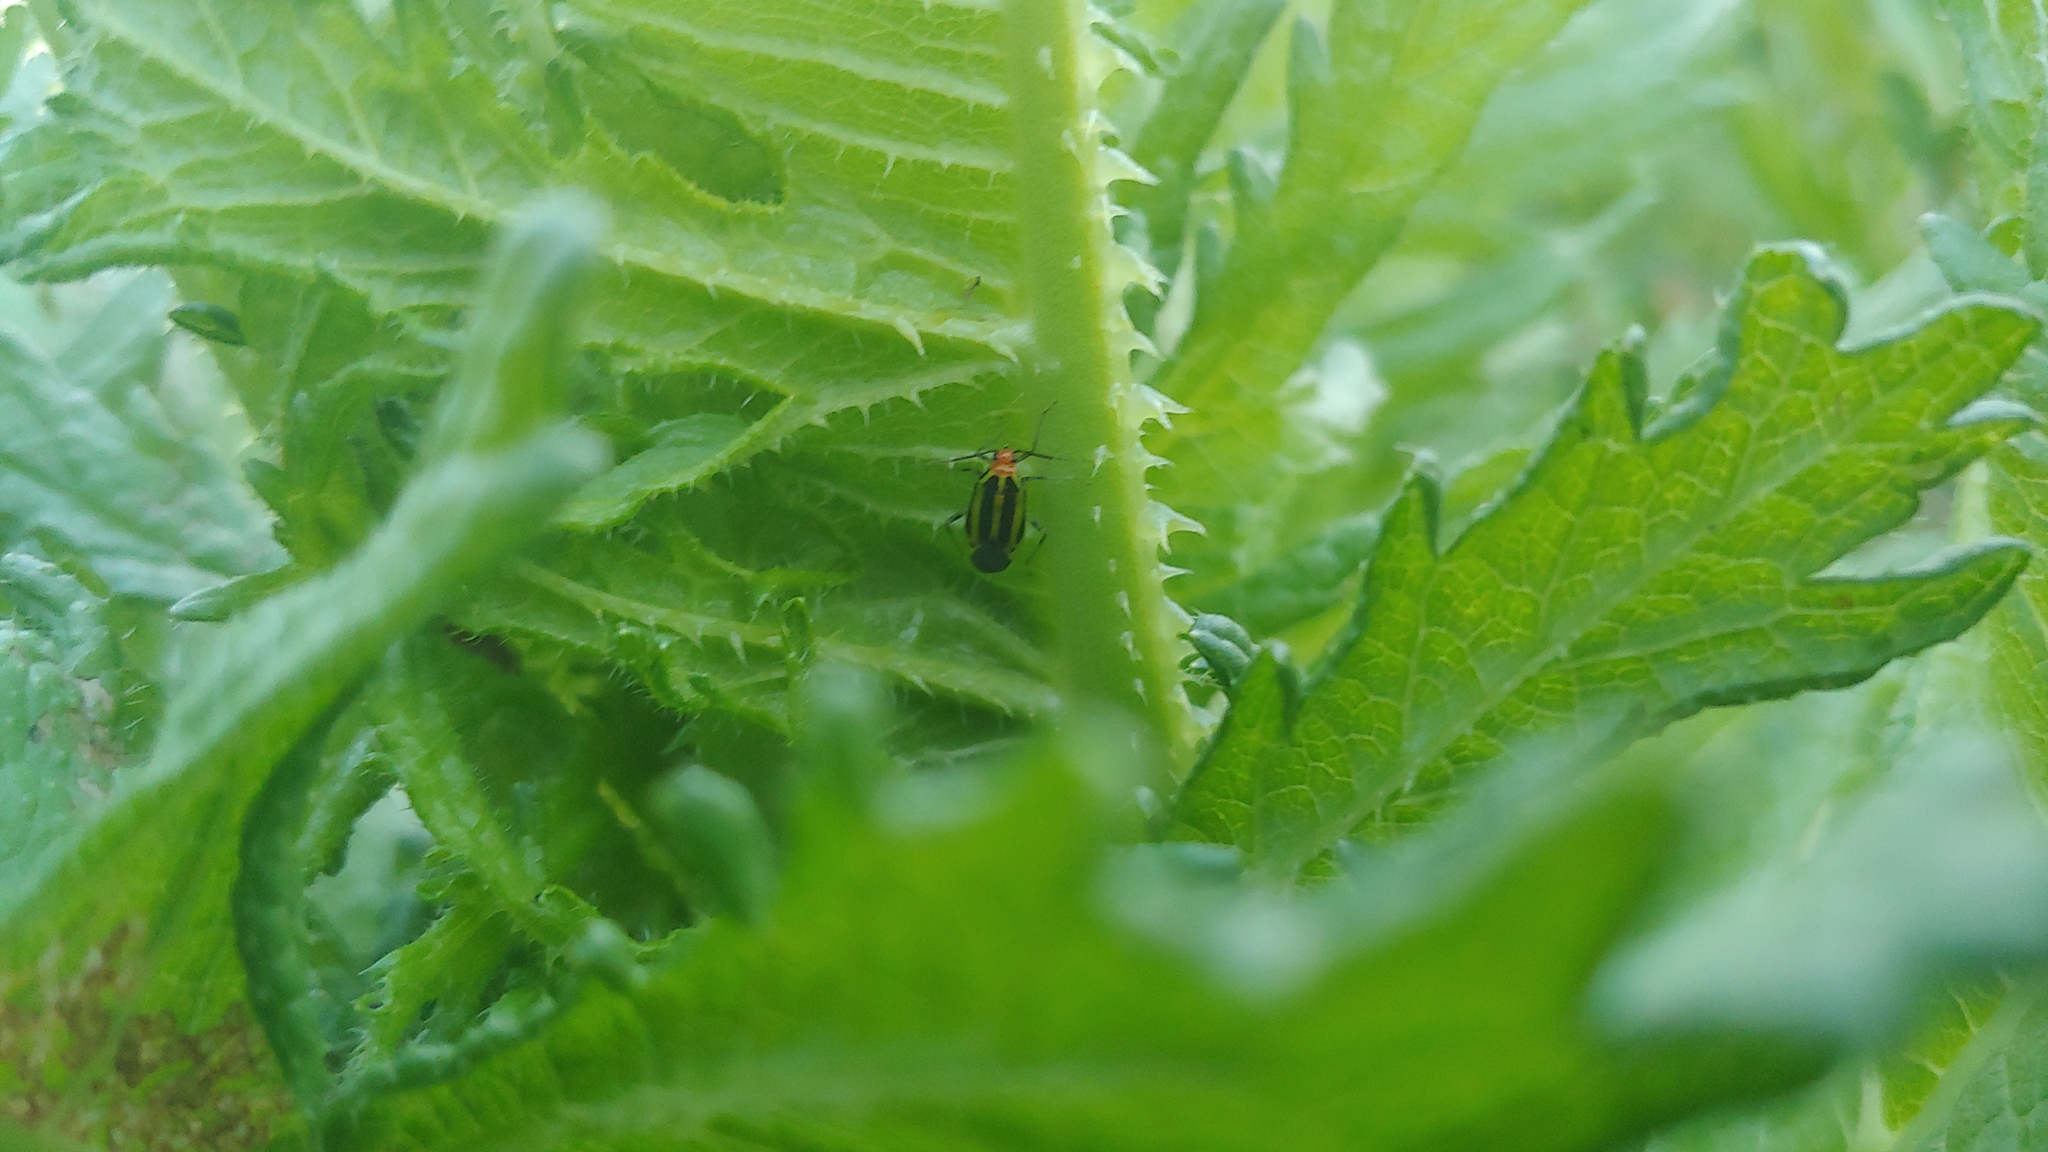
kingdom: Animalia
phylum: Arthropoda
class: Insecta
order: Hemiptera
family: Miridae
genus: Poecilocapsus
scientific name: Poecilocapsus lineatus
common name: Four-lined plant bug
